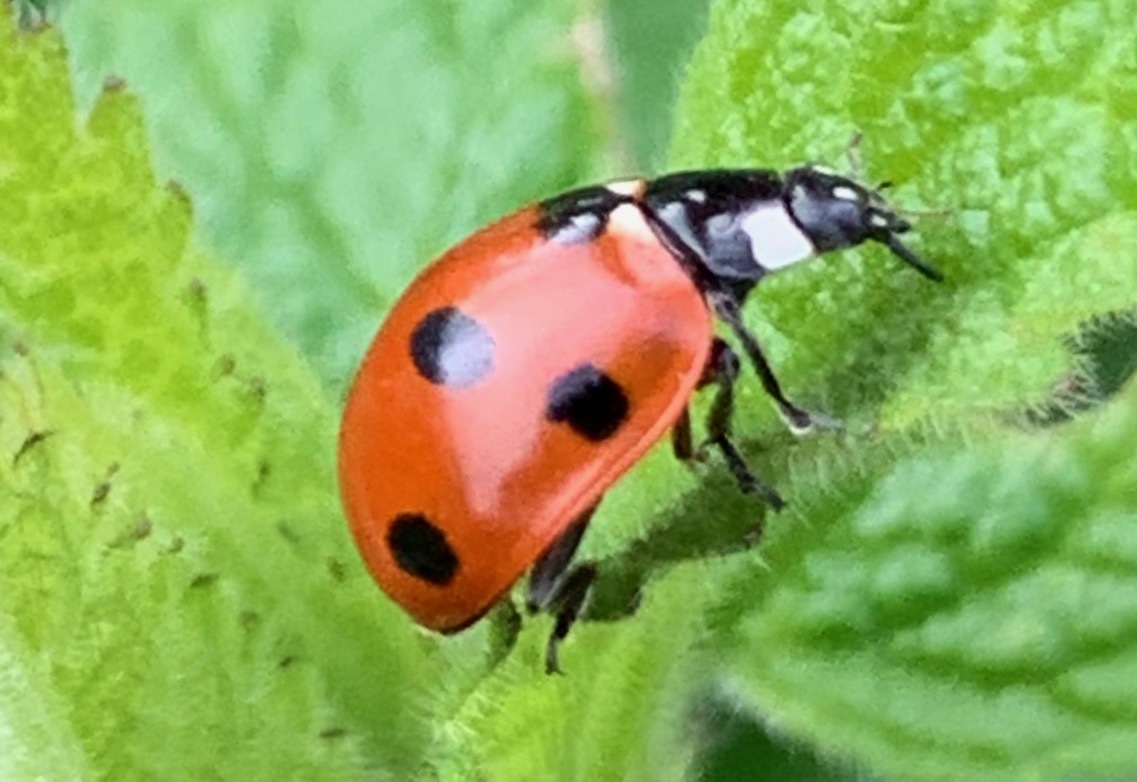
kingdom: Animalia
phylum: Arthropoda
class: Insecta
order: Coleoptera
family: Coccinellidae
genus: Coccinella
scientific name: Coccinella septempunctata
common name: Sevenspotted lady beetle
